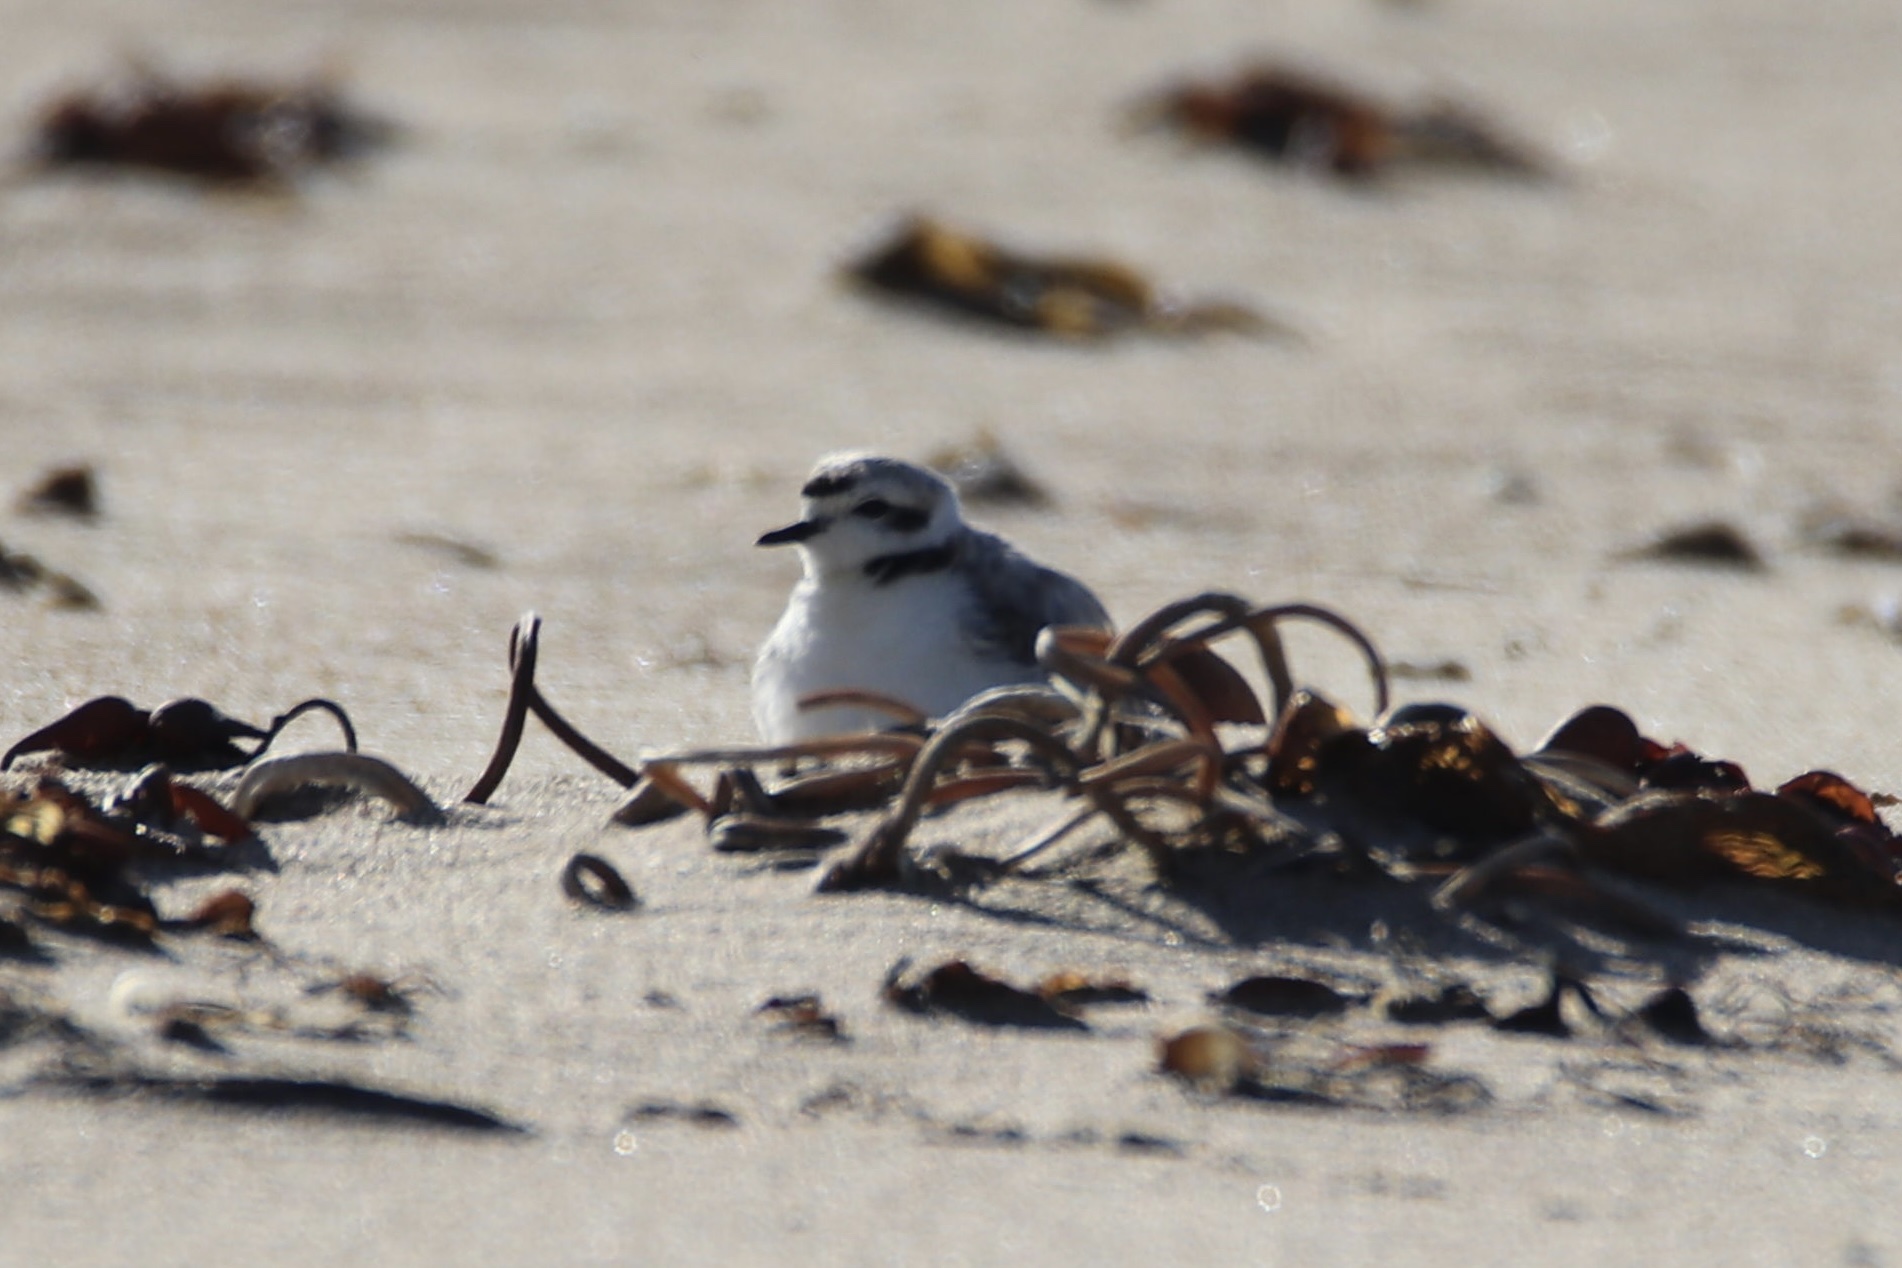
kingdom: Animalia
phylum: Chordata
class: Aves
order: Charadriiformes
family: Charadriidae
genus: Anarhynchus
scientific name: Anarhynchus
